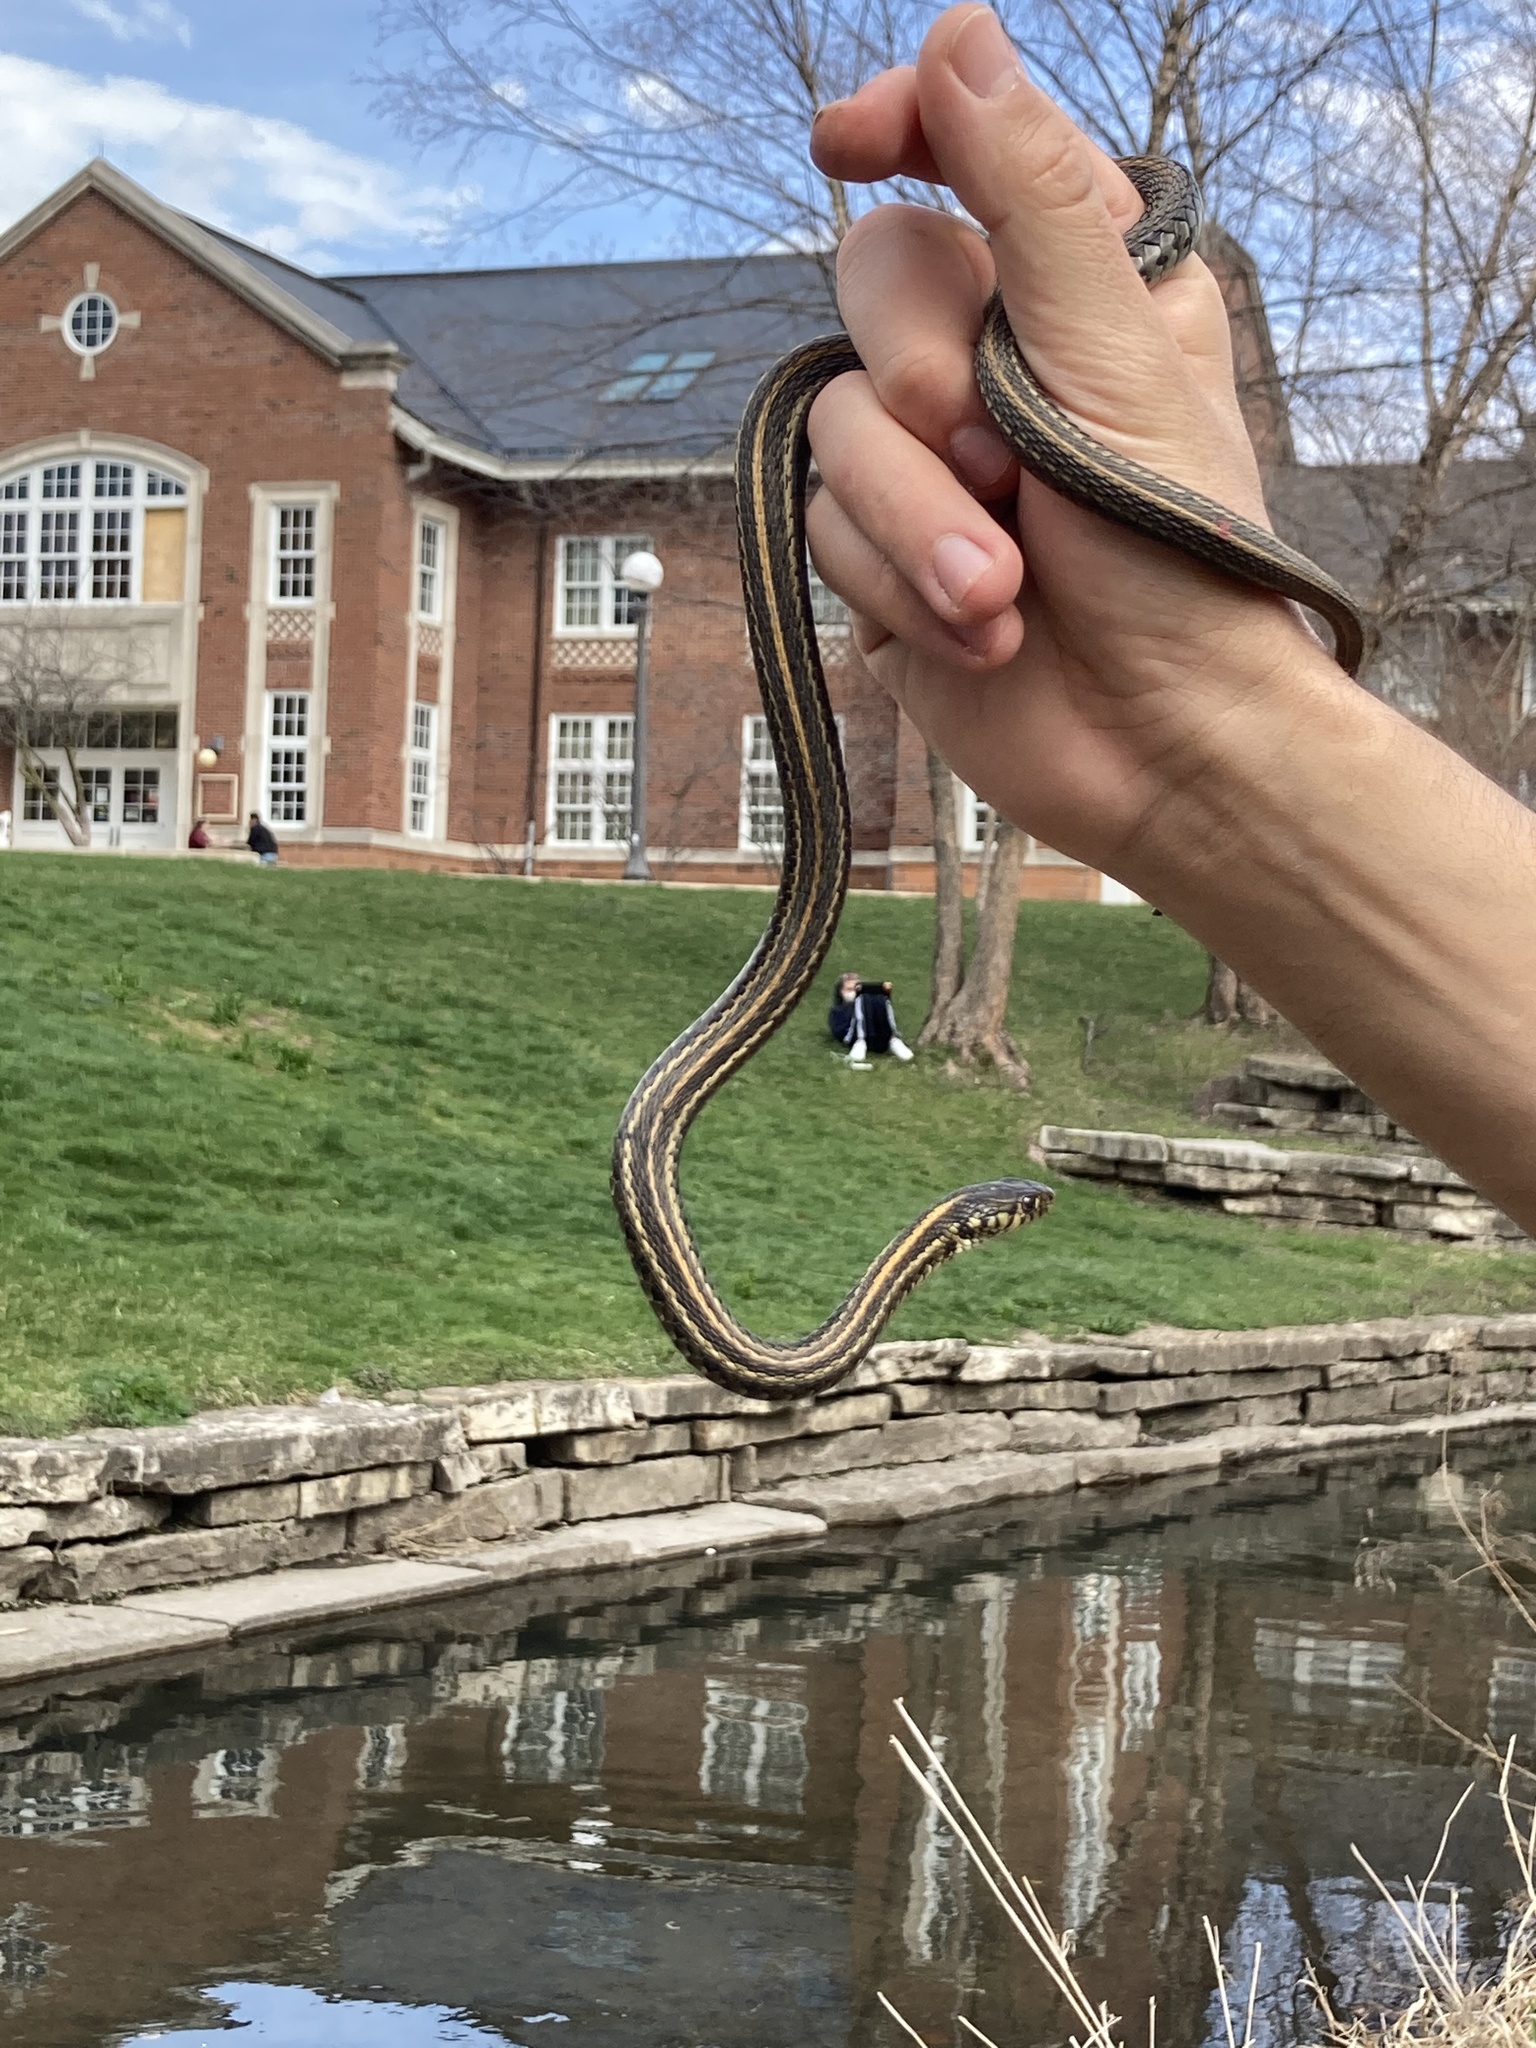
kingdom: Animalia
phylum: Chordata
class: Squamata
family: Colubridae
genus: Thamnophis
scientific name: Thamnophis radix
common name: Plains garter snake
